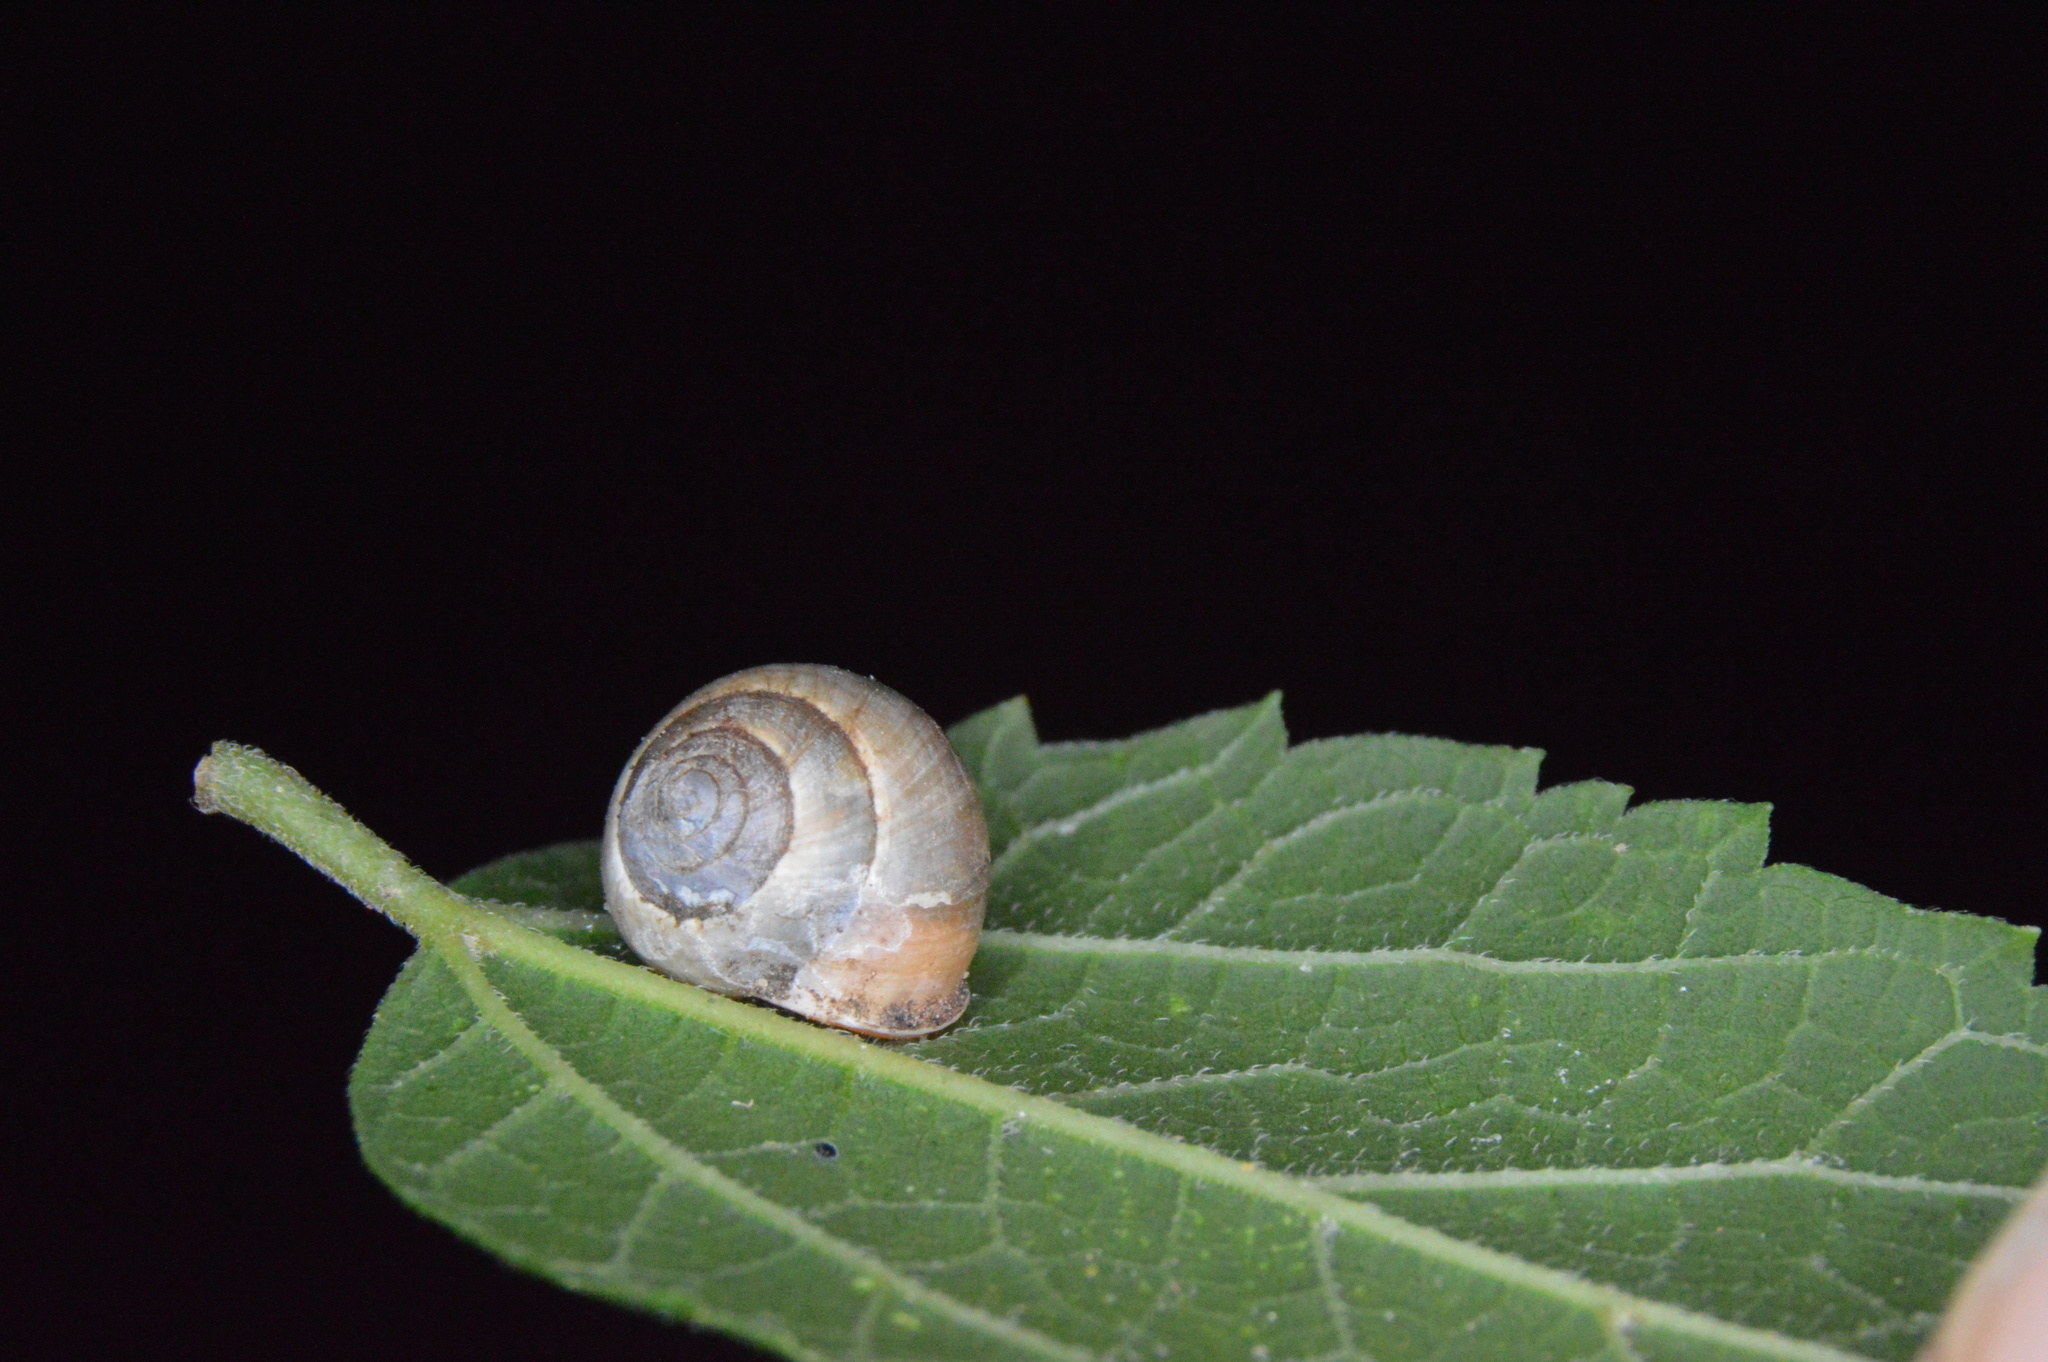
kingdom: Animalia
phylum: Mollusca
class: Gastropoda
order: Cycloneritida
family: Helicinidae
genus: Helicina
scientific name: Helicina orbiculata
